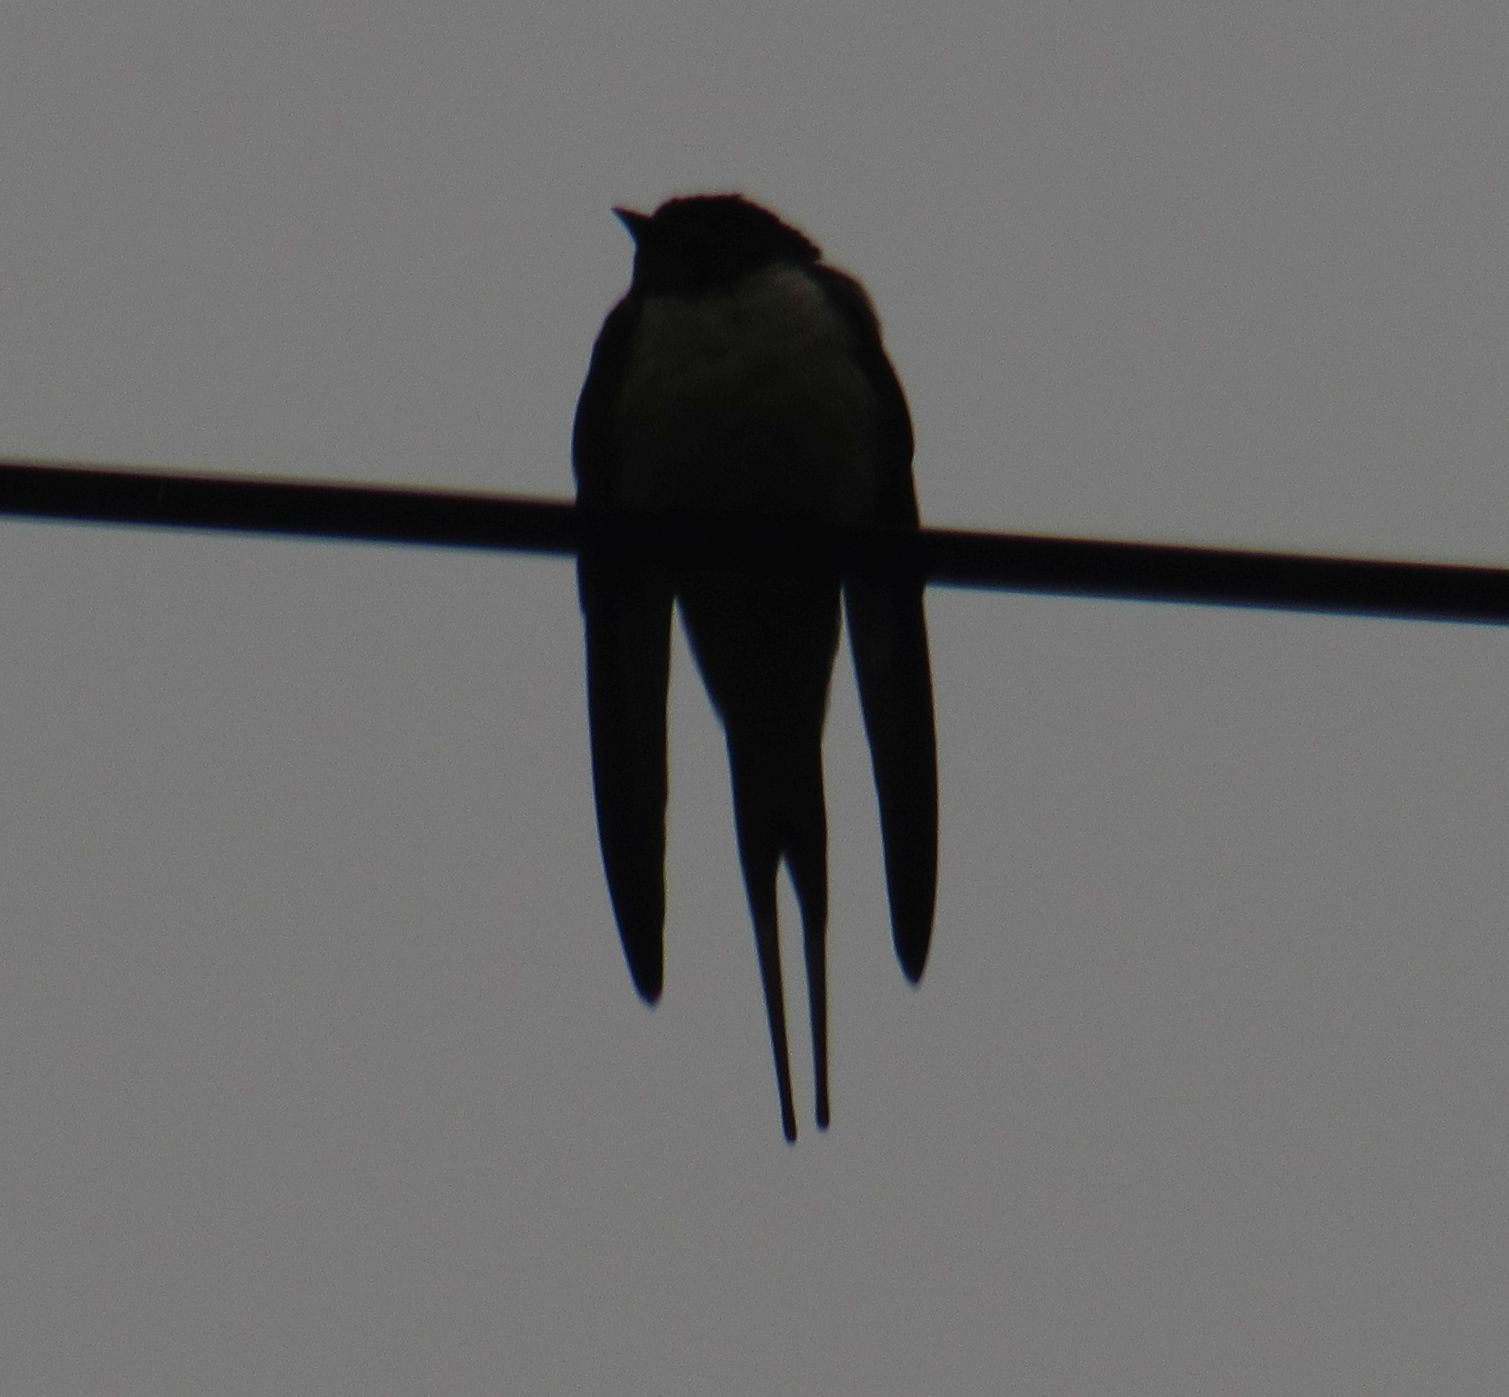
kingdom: Animalia
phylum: Chordata
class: Aves
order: Passeriformes
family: Hirundinidae
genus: Hirundo
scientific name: Hirundo rustica
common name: Barn swallow
